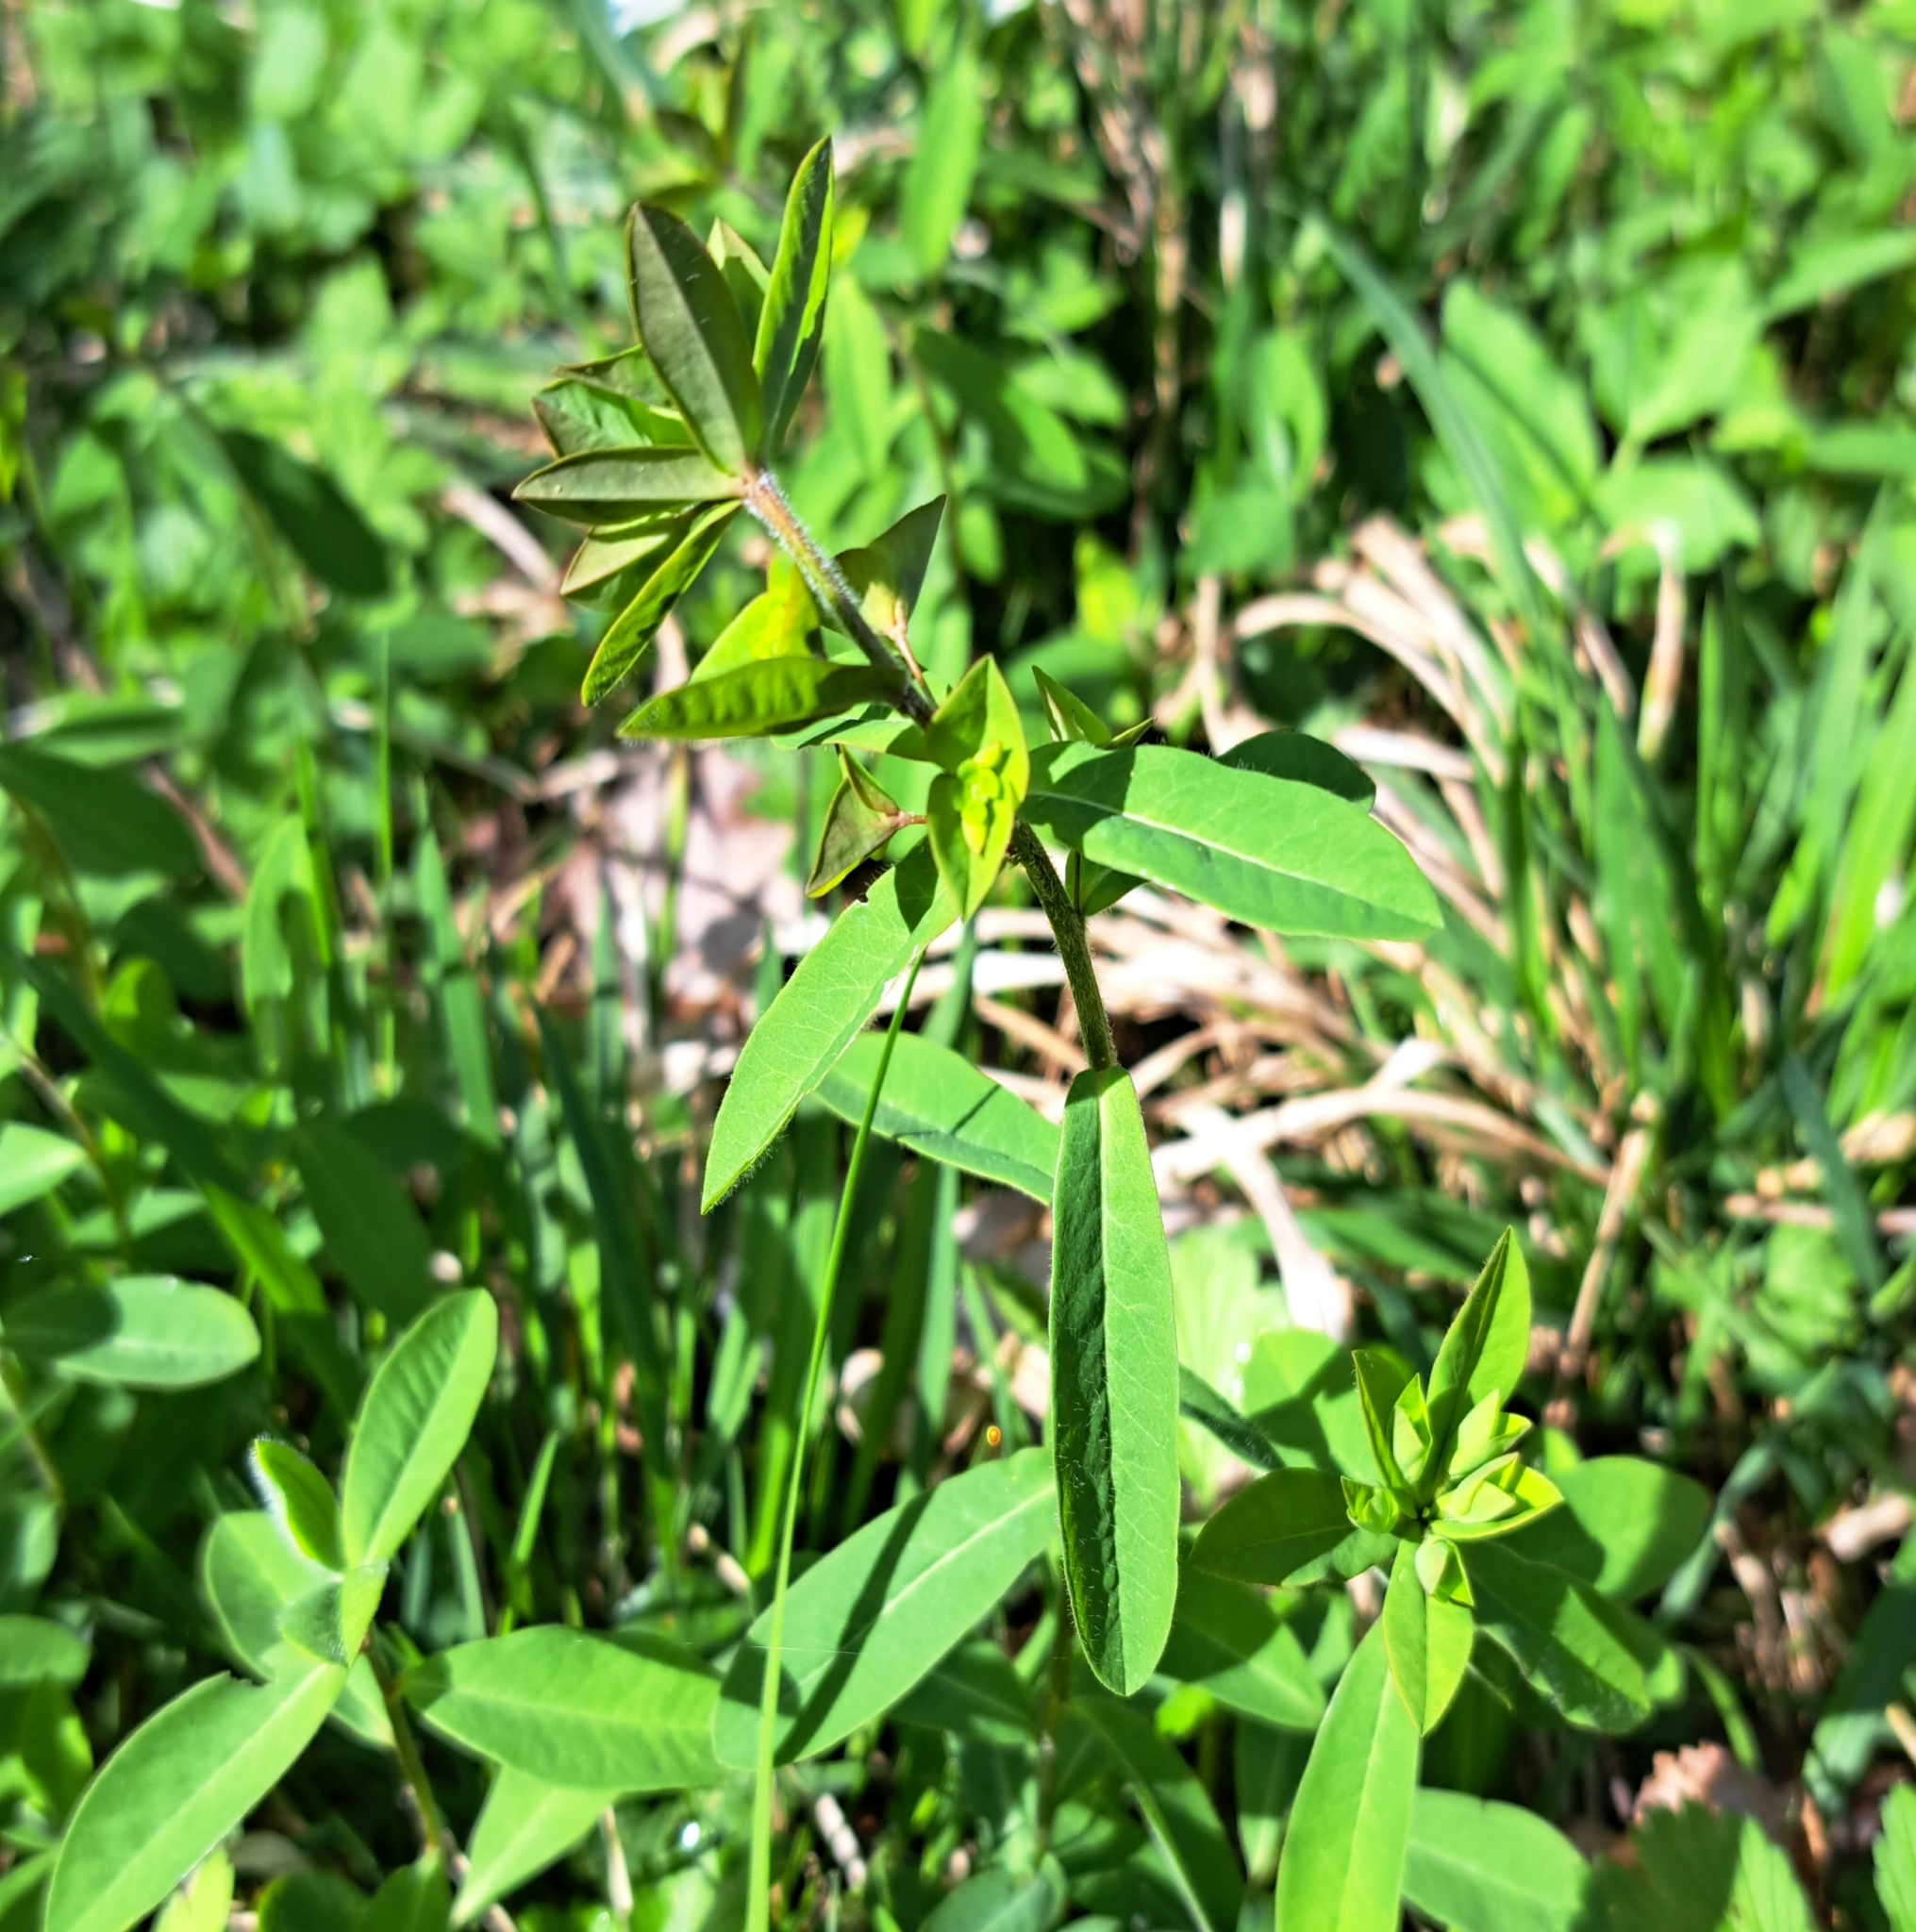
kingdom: Plantae
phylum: Tracheophyta
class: Magnoliopsida
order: Malpighiales
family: Euphorbiaceae
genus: Euphorbia
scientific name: Euphorbia dulcis
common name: Sweet spurge
